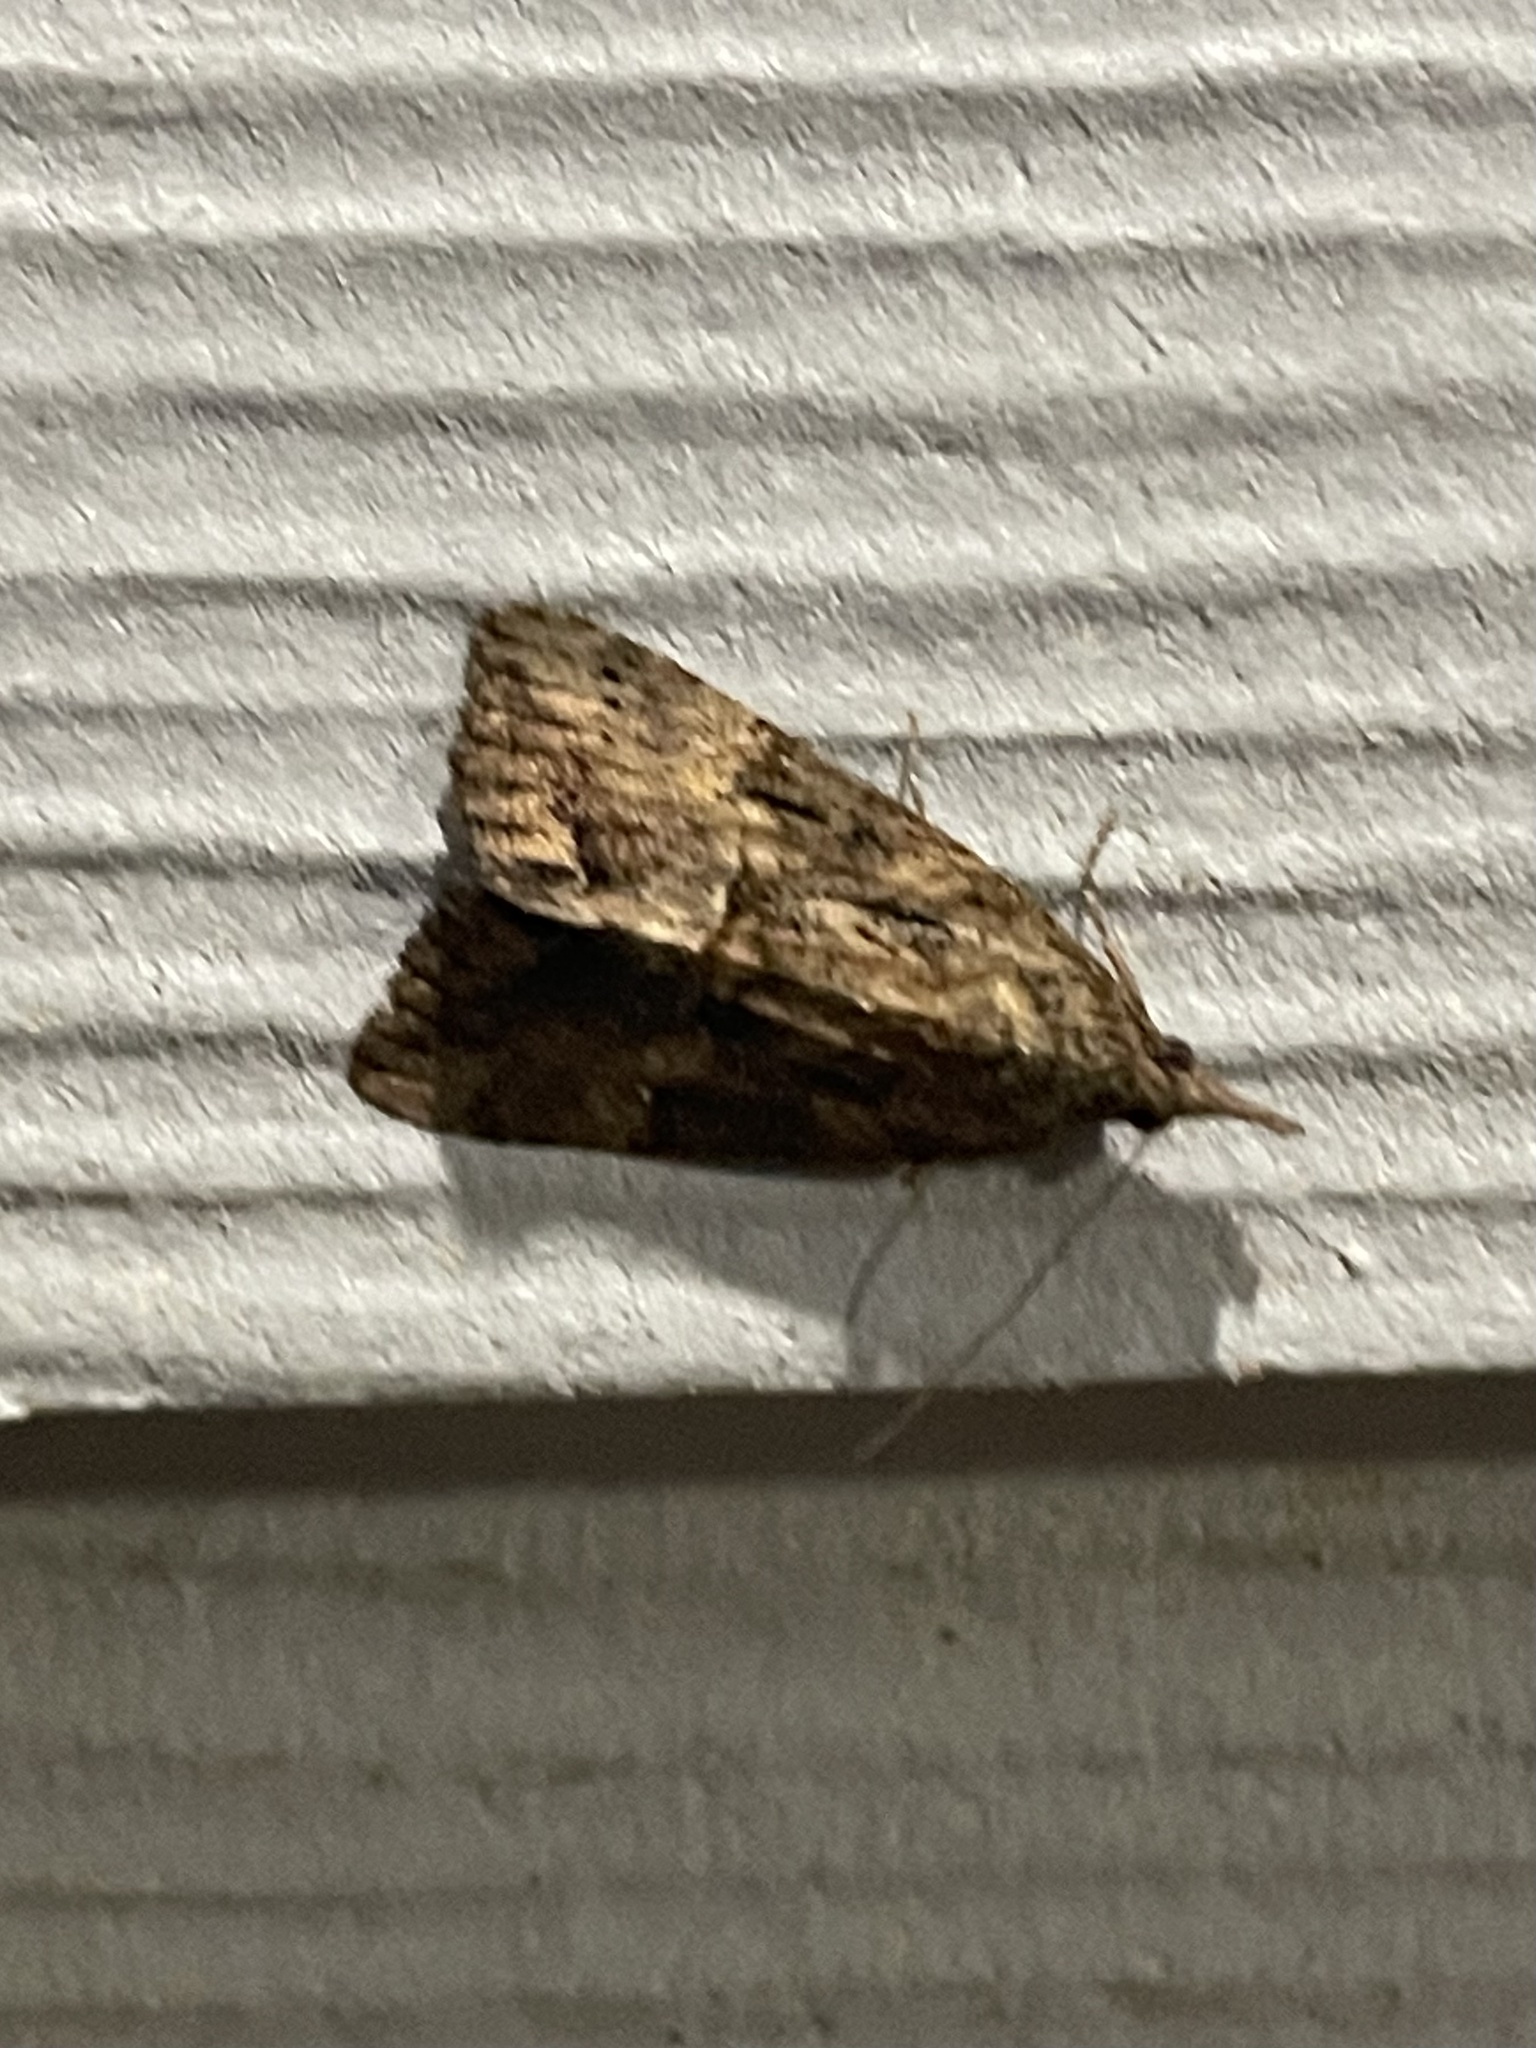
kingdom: Animalia
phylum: Arthropoda
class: Insecta
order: Lepidoptera
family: Erebidae
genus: Hypena
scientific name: Hypena scabra
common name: Green cloverworm
